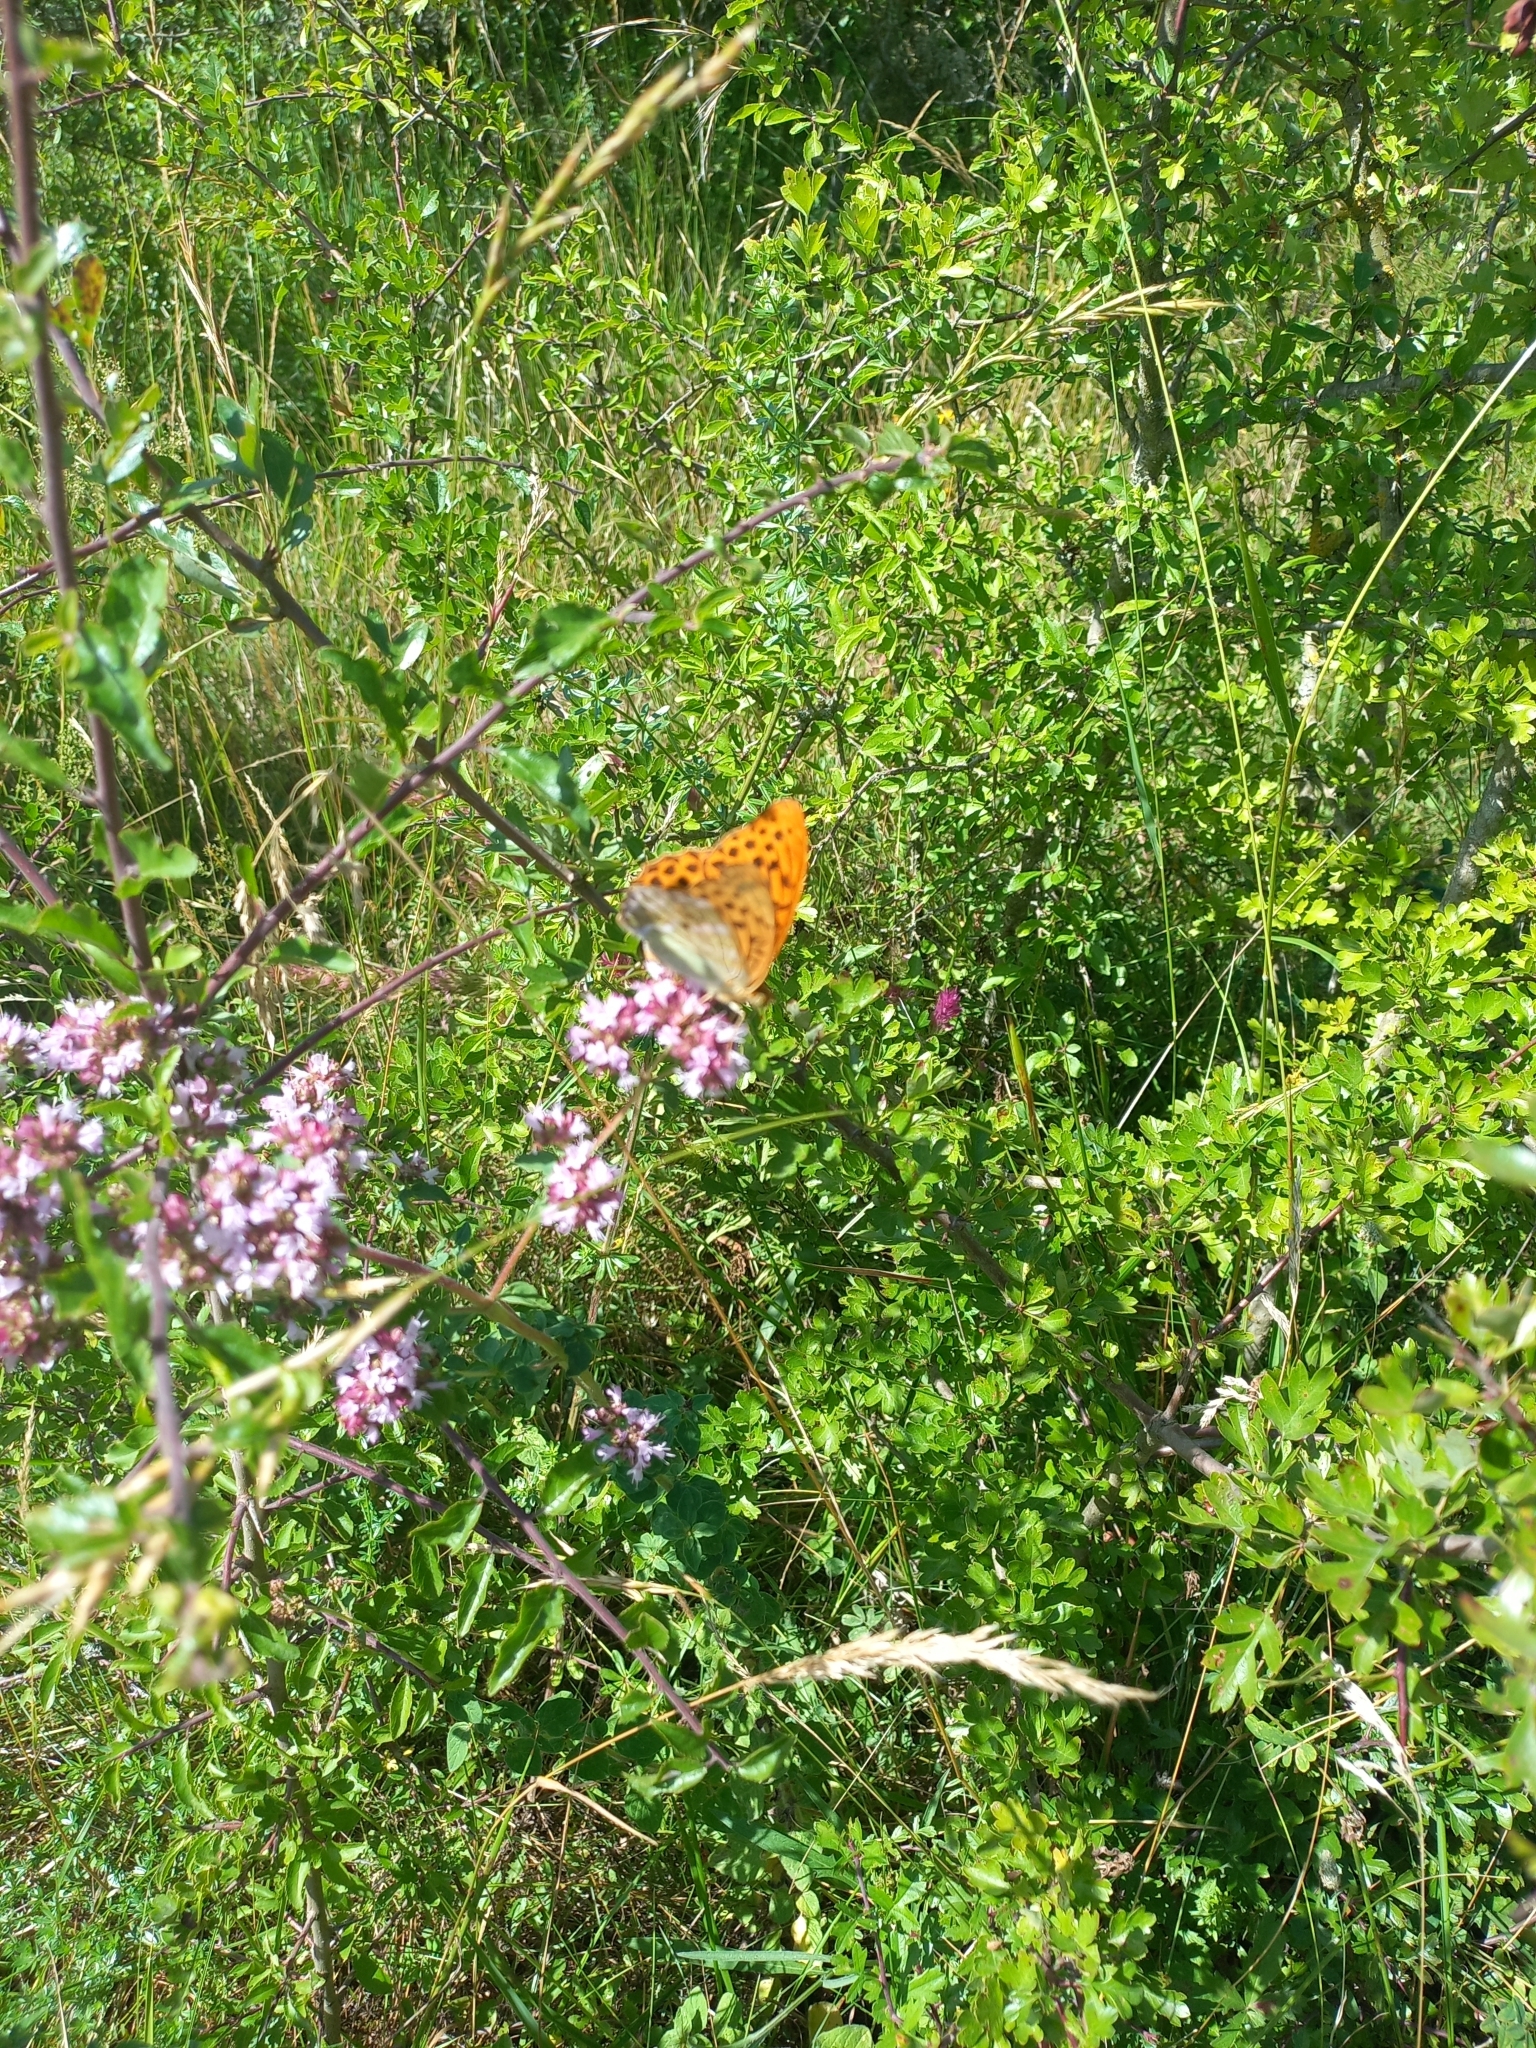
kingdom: Animalia
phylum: Arthropoda
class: Insecta
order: Lepidoptera
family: Nymphalidae
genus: Argynnis
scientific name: Argynnis paphia
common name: Silver-washed fritillary
